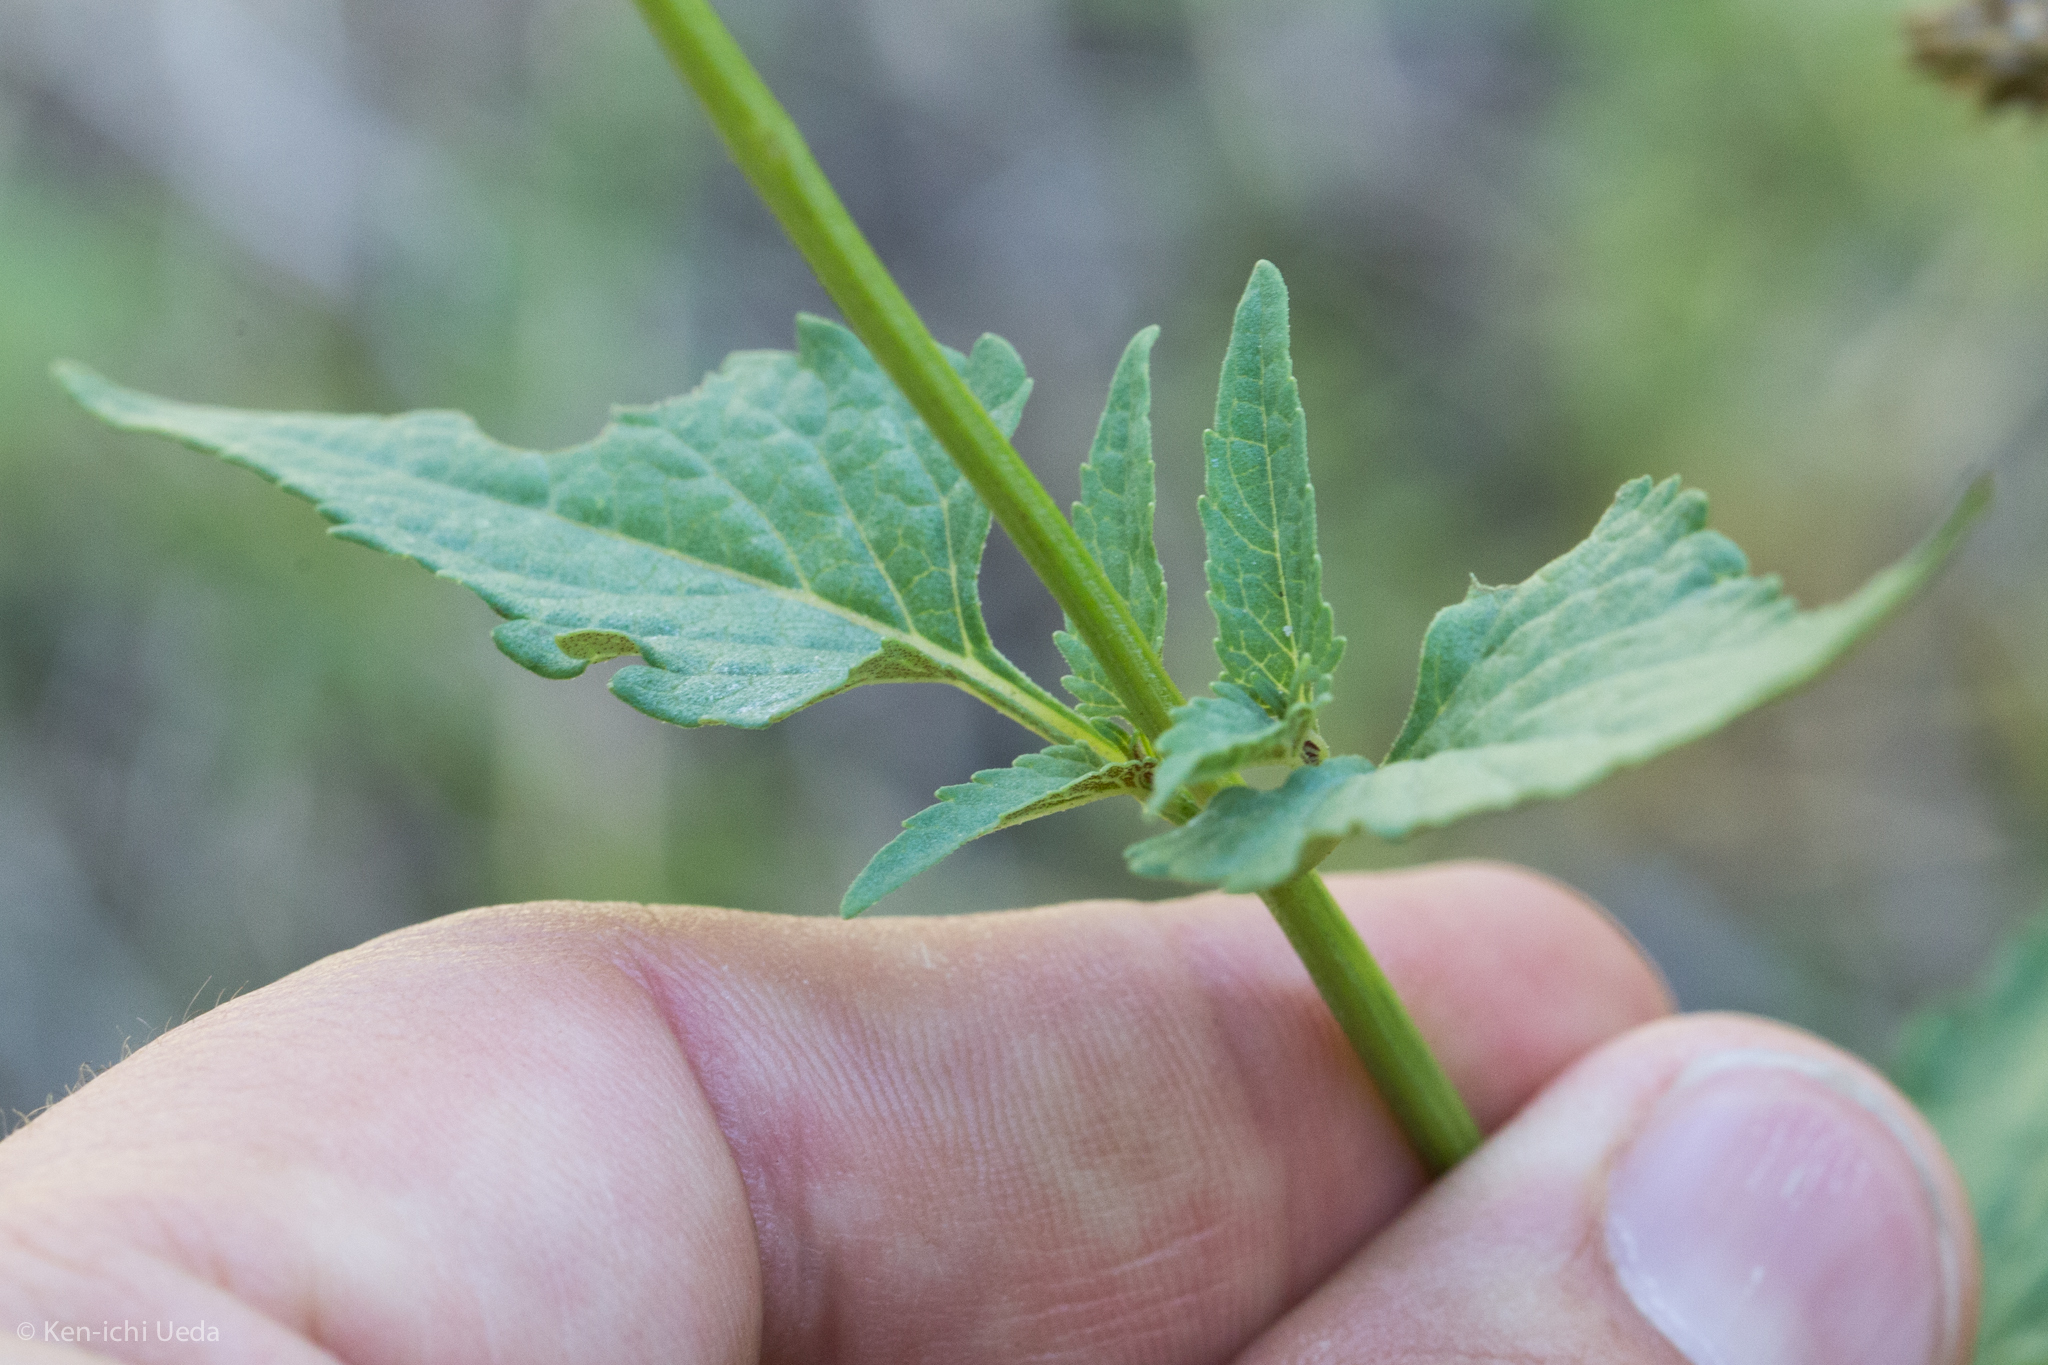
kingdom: Plantae
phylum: Tracheophyta
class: Magnoliopsida
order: Lamiales
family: Lamiaceae
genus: Salvia
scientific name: Salvia arizonica
